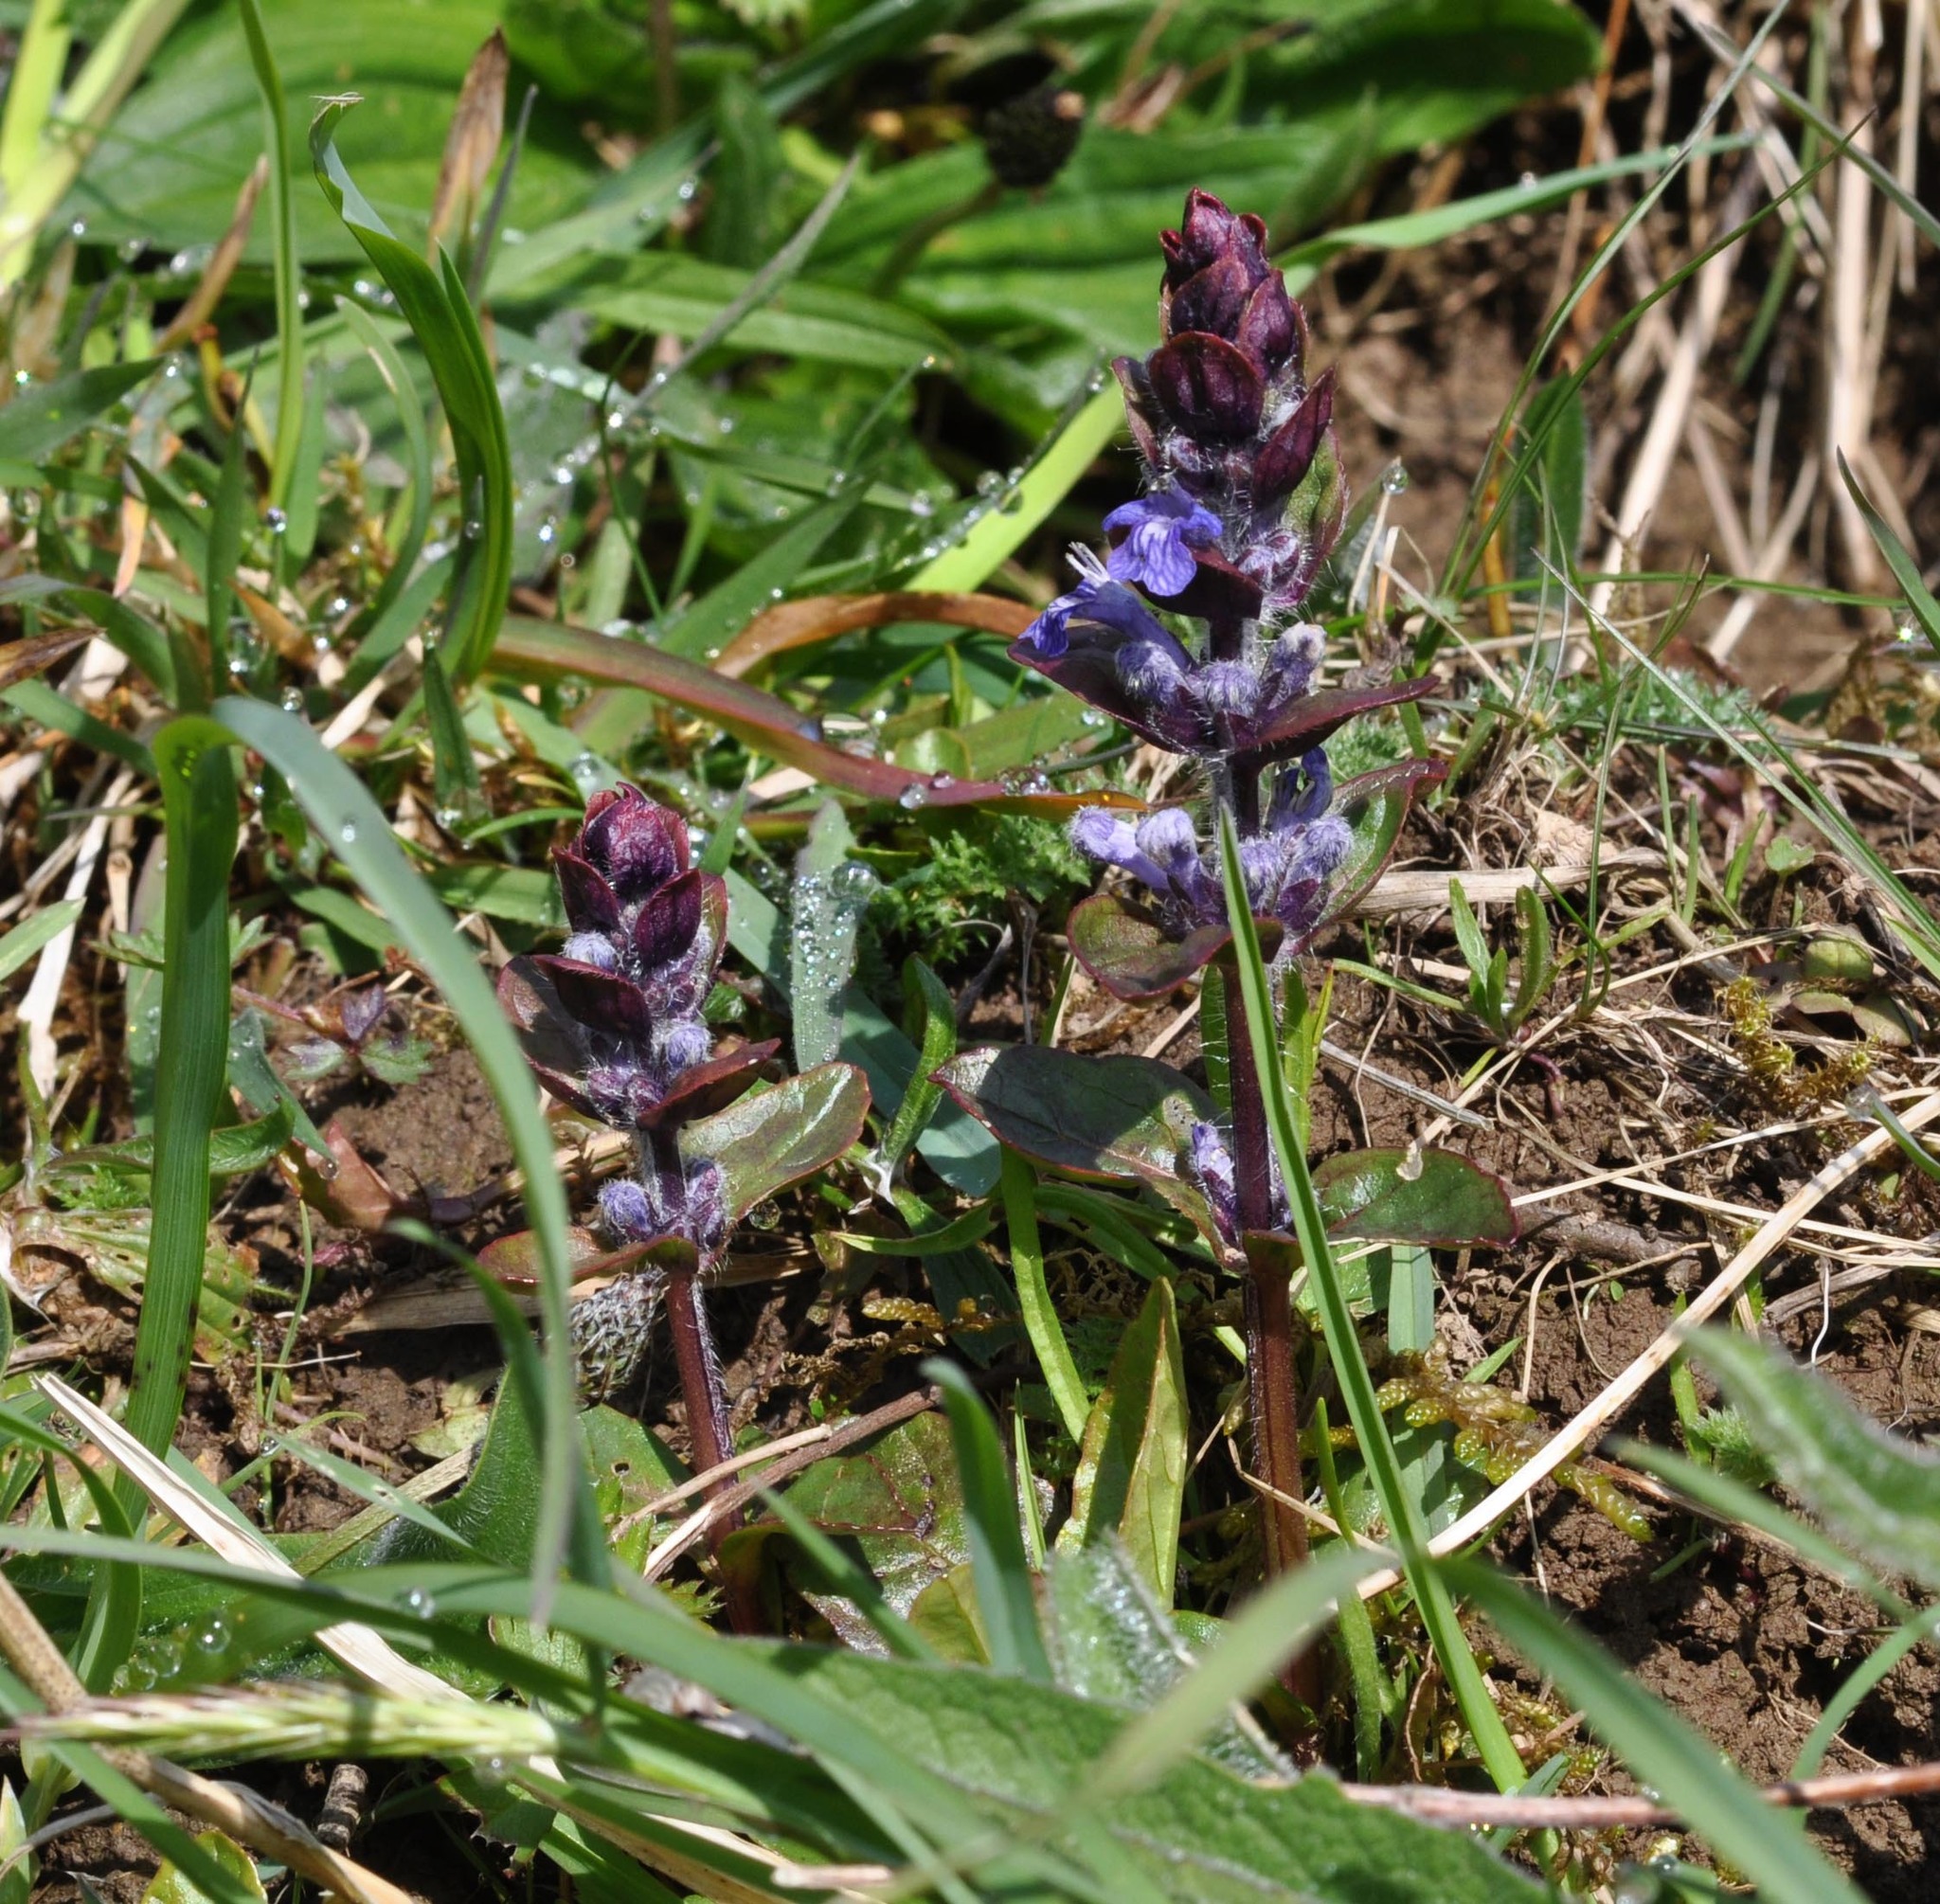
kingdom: Plantae
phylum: Tracheophyta
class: Magnoliopsida
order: Lamiales
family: Lamiaceae
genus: Ajuga
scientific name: Ajuga reptans
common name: Bugle
